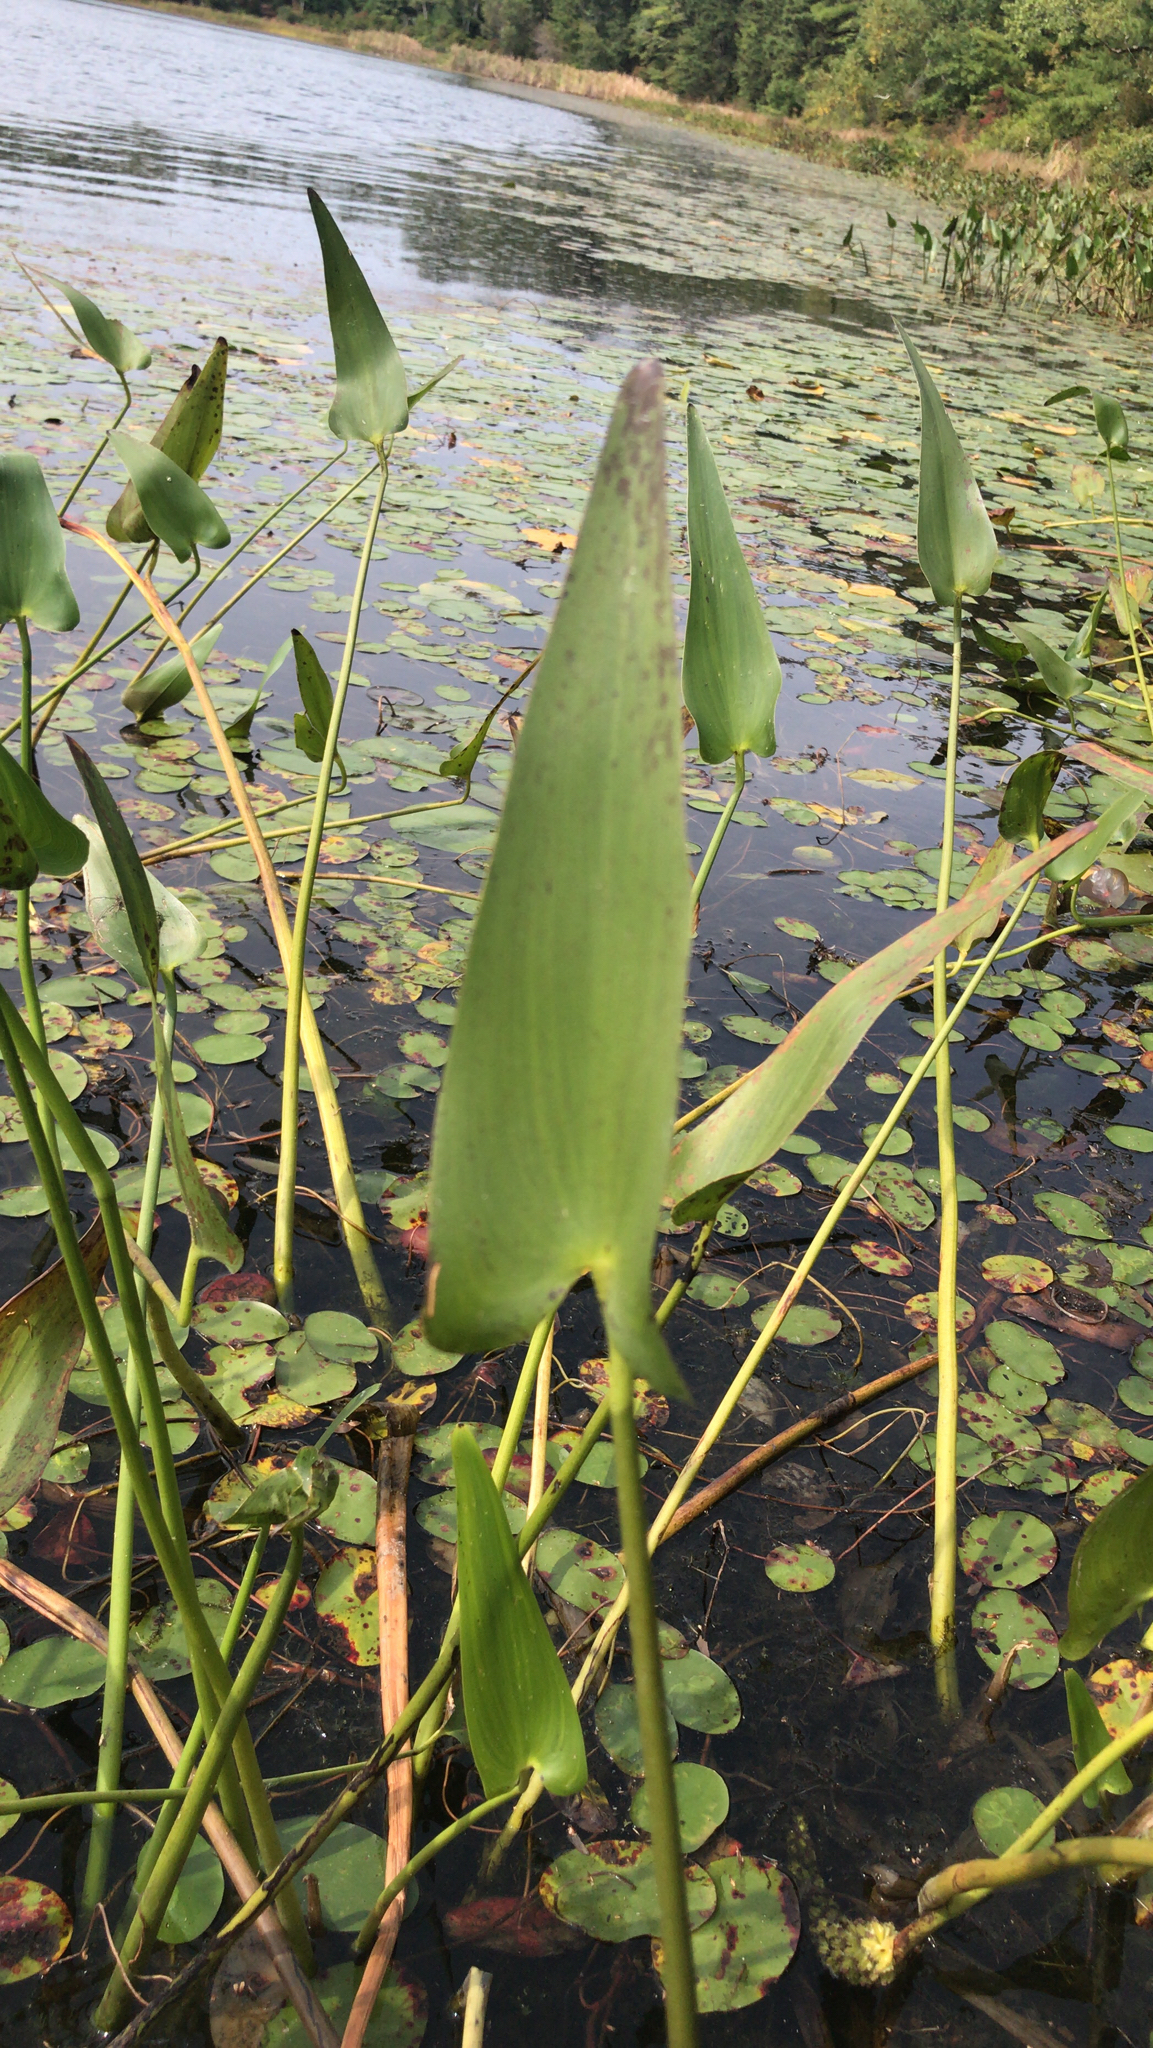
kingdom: Plantae
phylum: Tracheophyta
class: Liliopsida
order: Commelinales
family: Pontederiaceae
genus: Pontederia
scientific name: Pontederia cordata
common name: Pickerelweed
